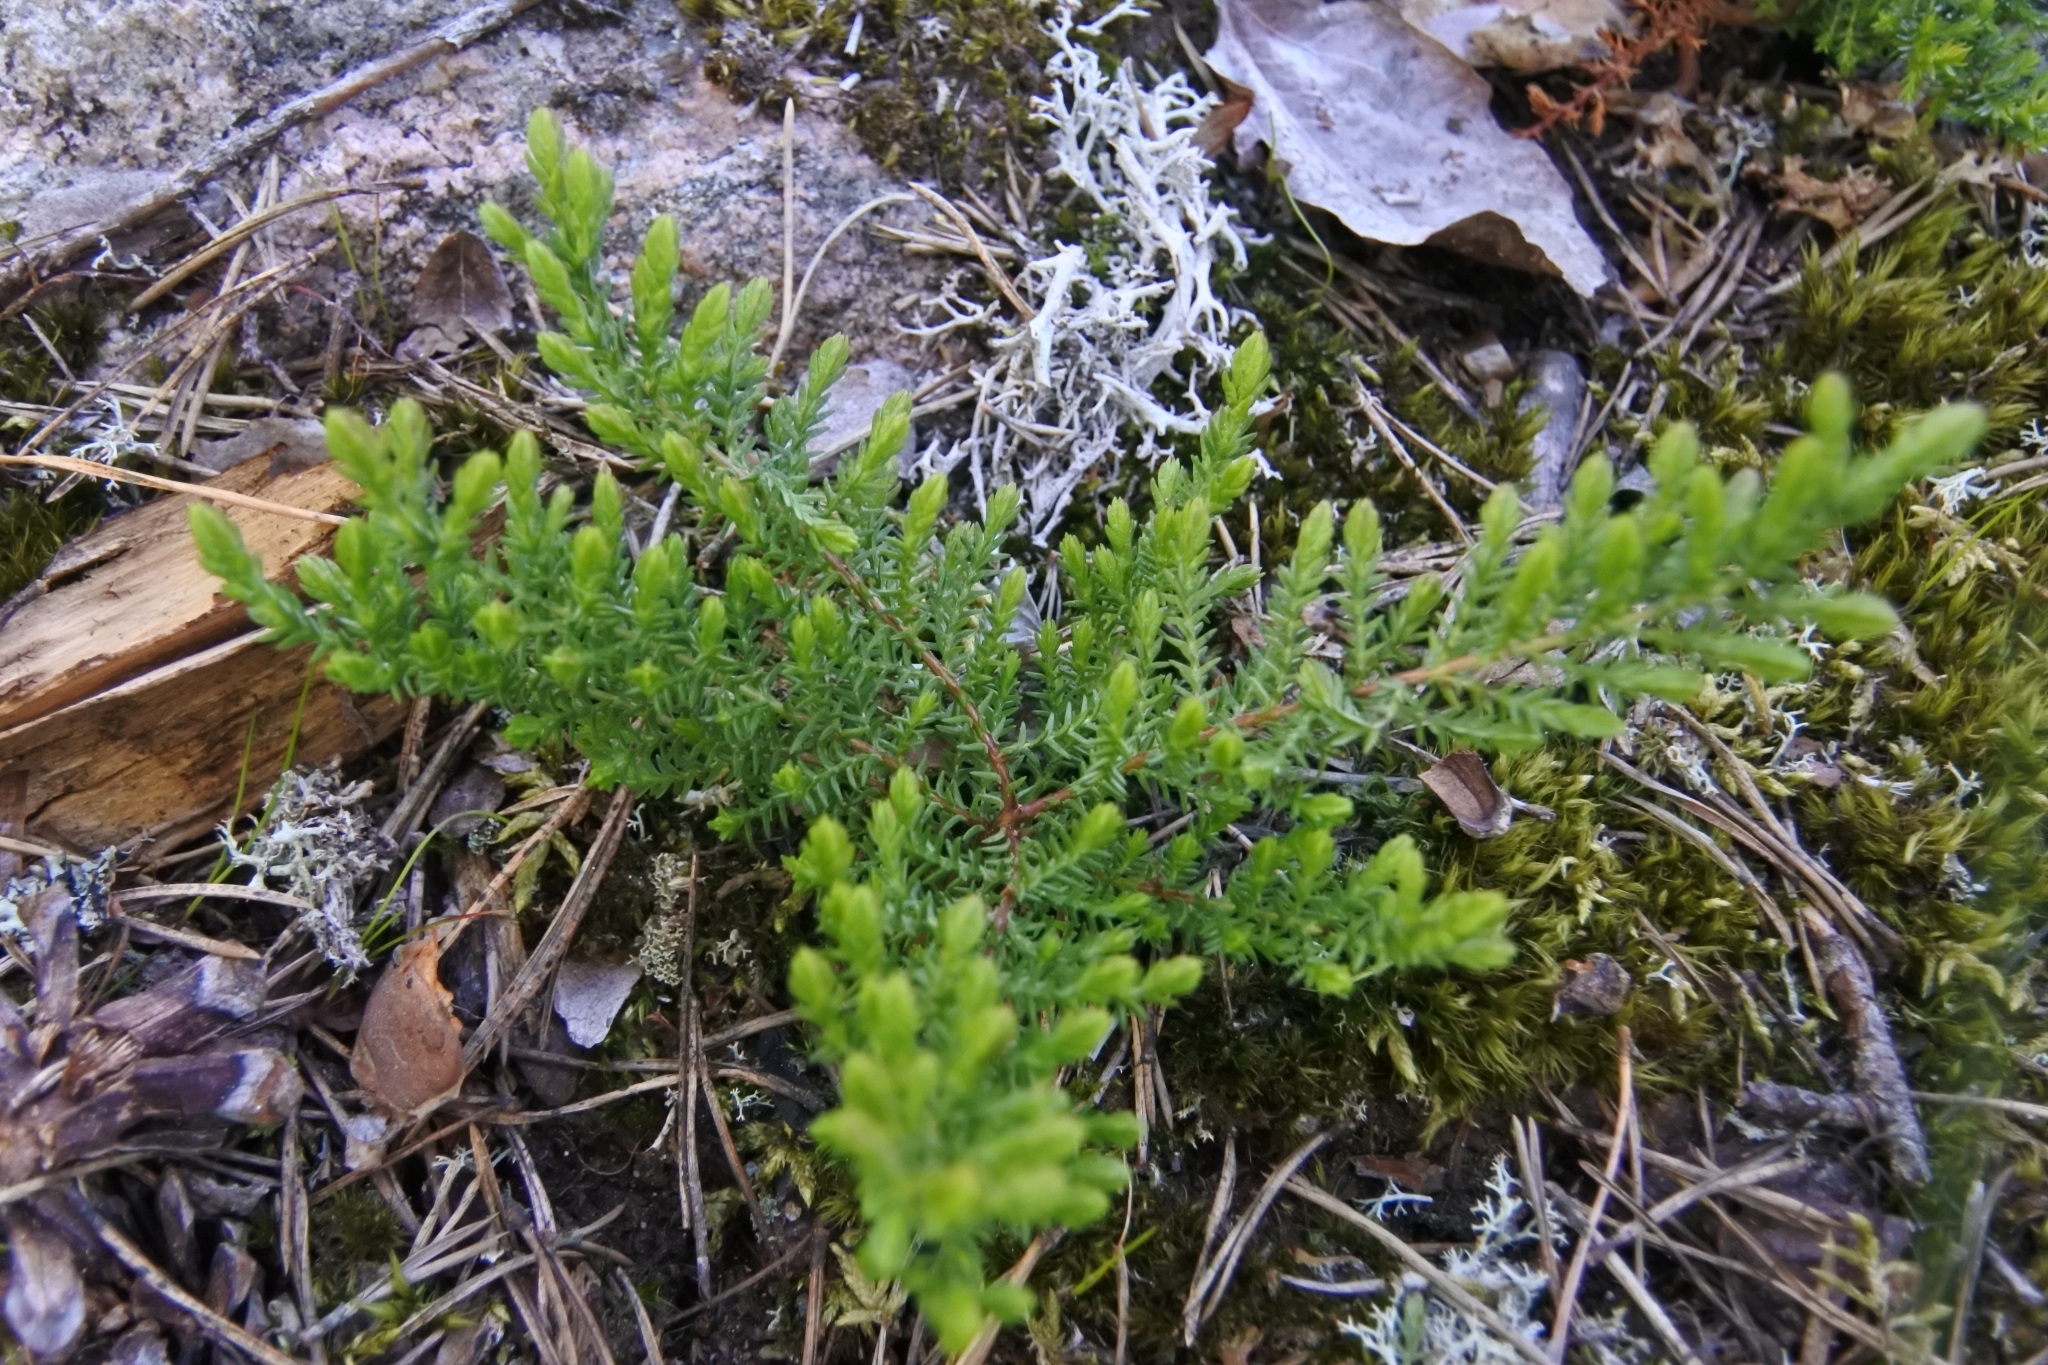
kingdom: Plantae
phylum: Tracheophyta
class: Pinopsida
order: Pinales
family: Cupressaceae
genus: Juniperus
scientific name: Juniperus communis
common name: Common juniper
